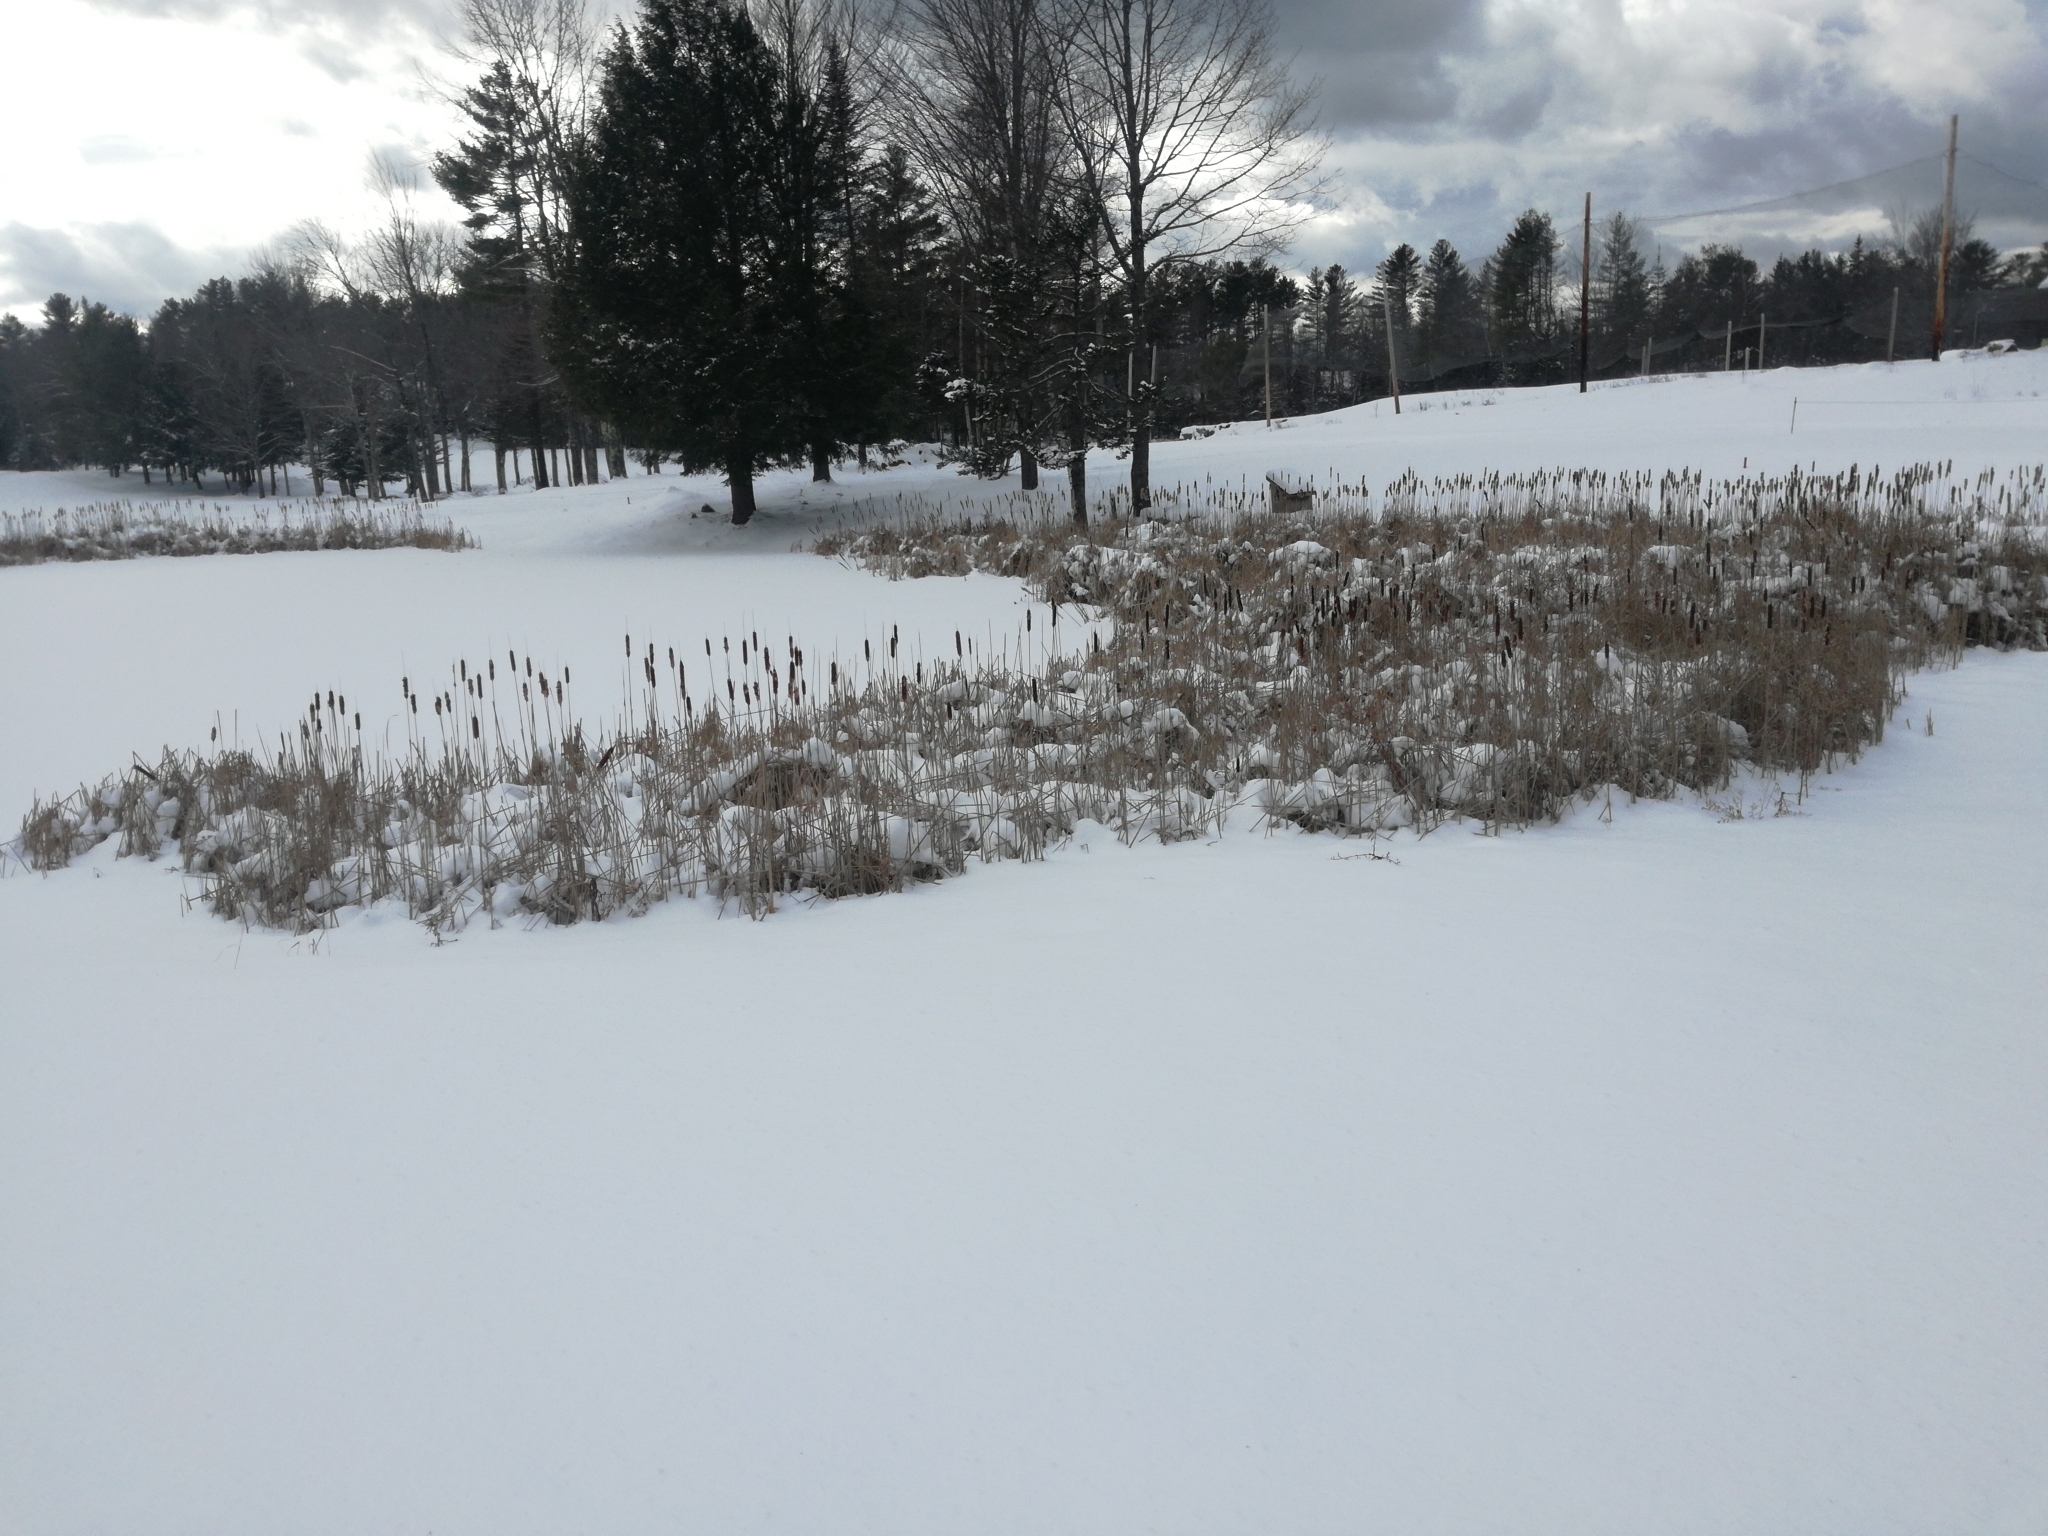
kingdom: Plantae
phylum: Tracheophyta
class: Liliopsida
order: Poales
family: Typhaceae
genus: Typha
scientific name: Typha latifolia
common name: Broadleaf cattail
